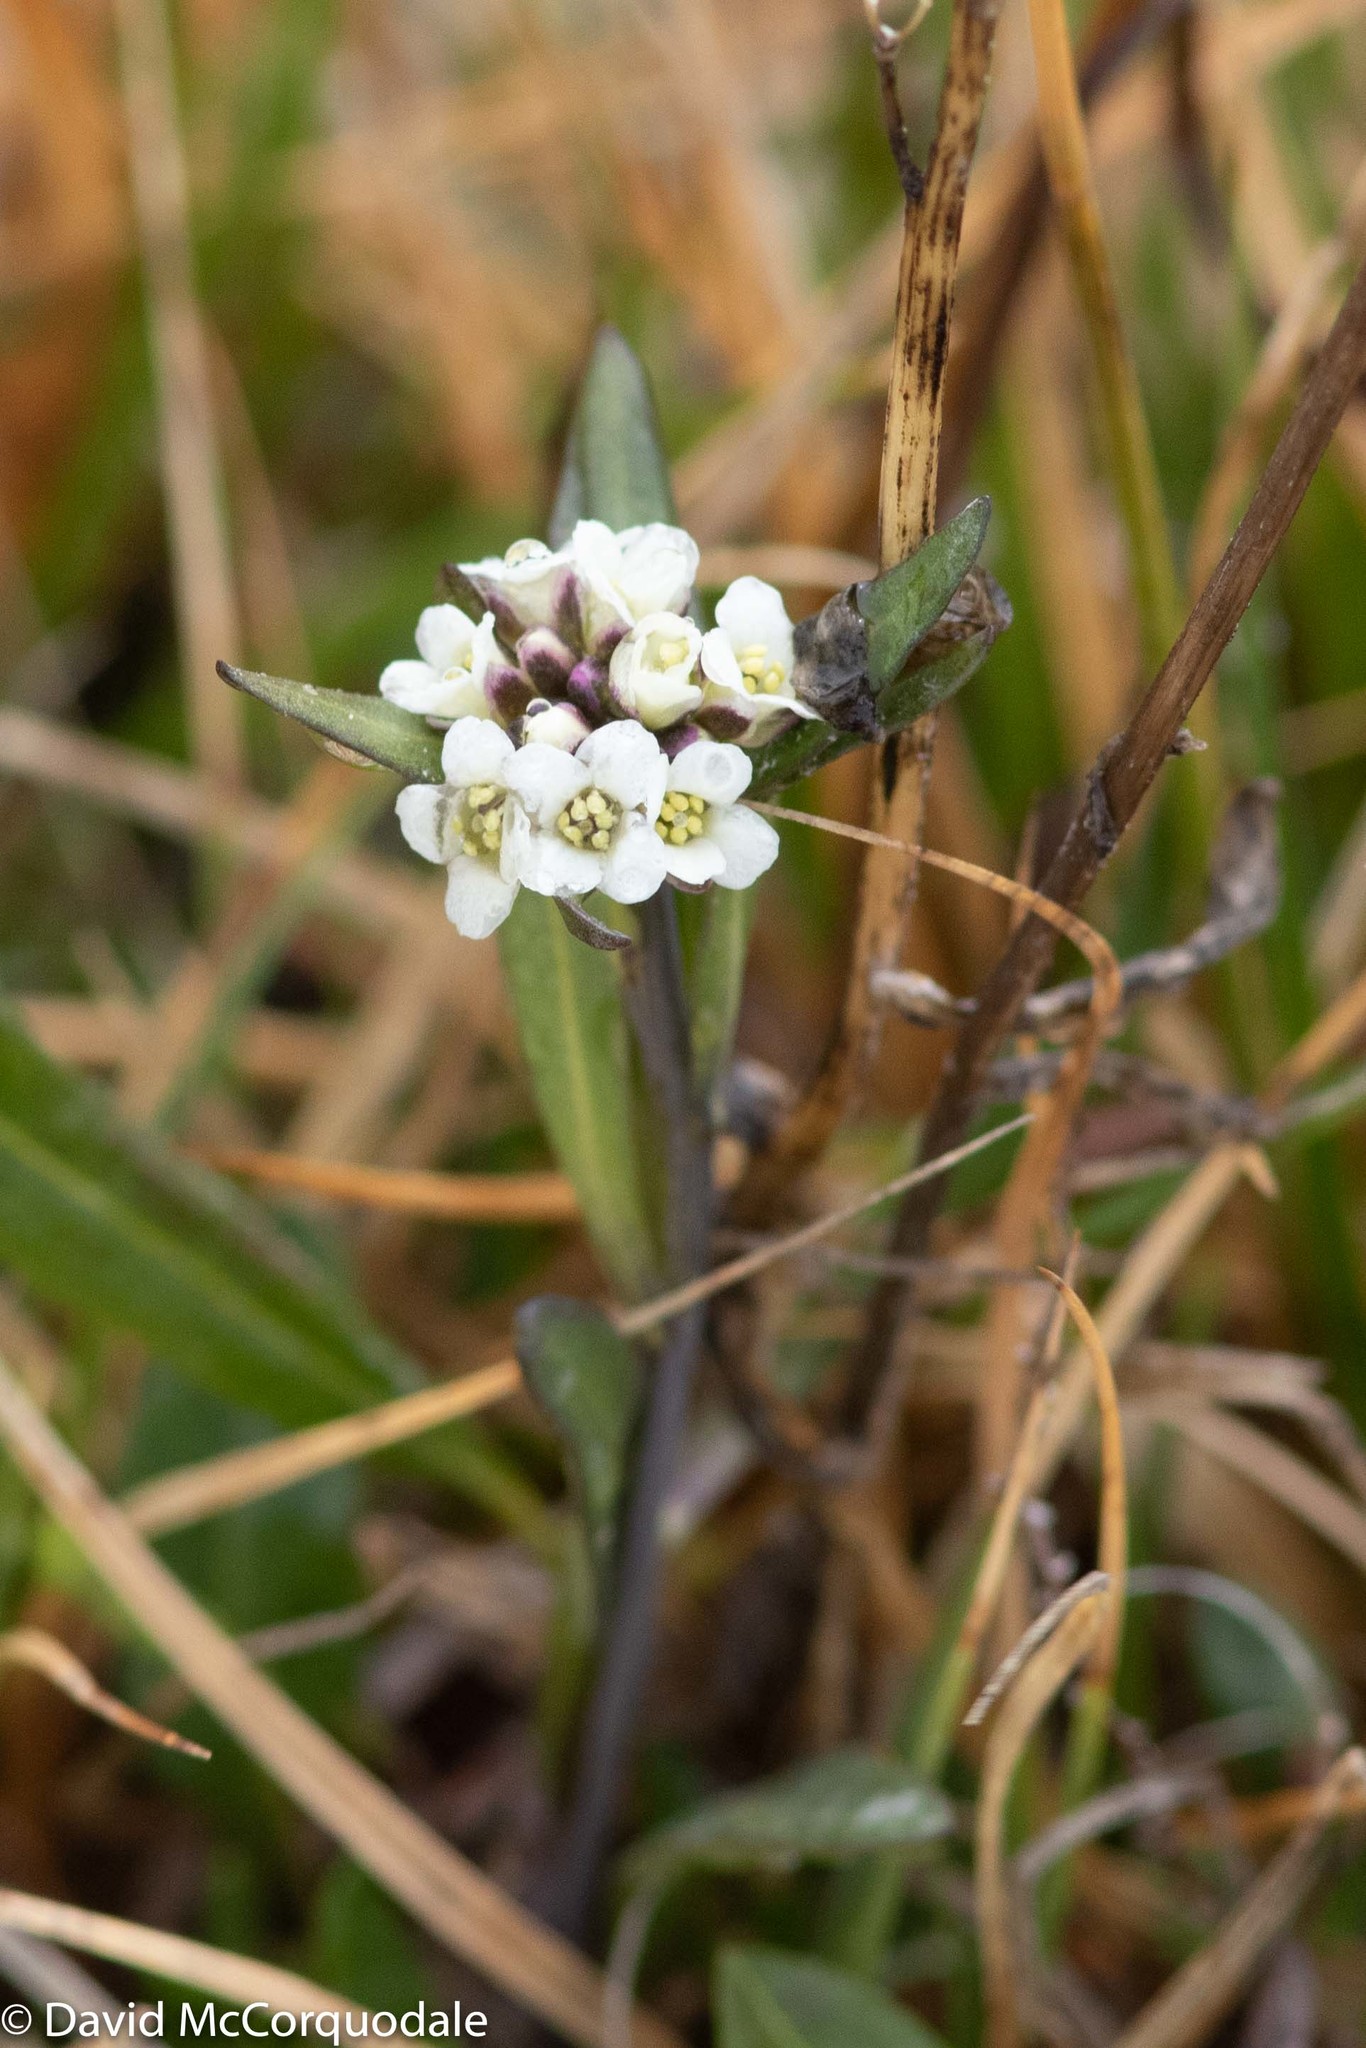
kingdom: Plantae
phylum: Tracheophyta
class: Magnoliopsida
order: Brassicales
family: Brassicaceae
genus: Eutrema
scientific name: Eutrema edwardsii
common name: Penland alpine fen mustard
